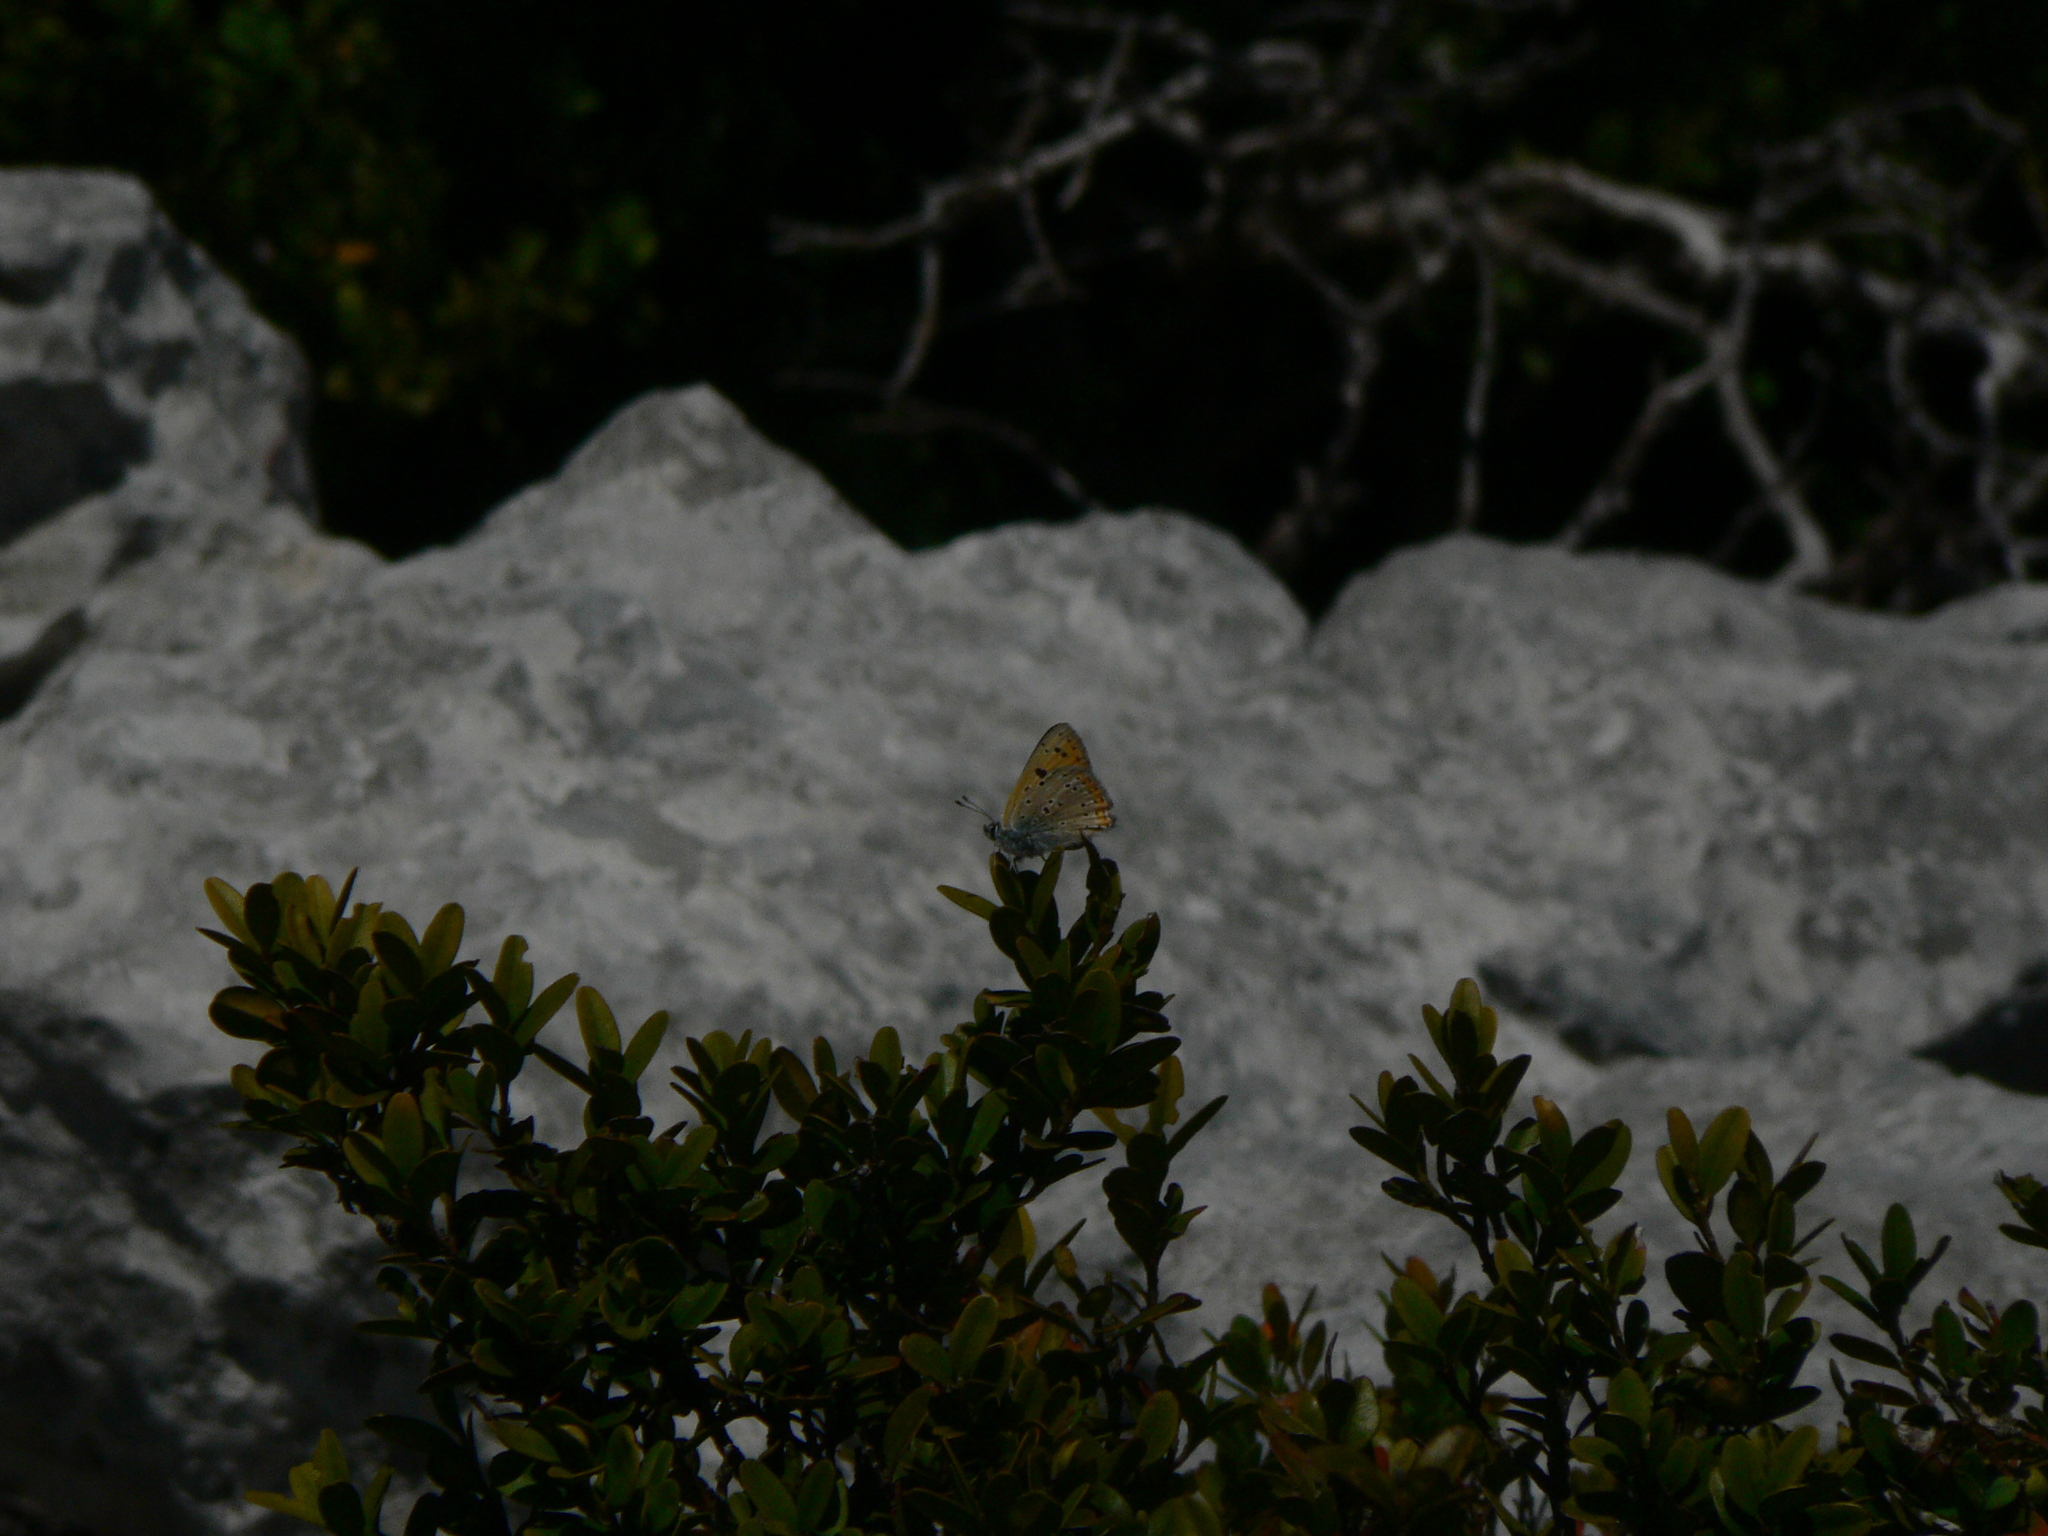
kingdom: Animalia
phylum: Arthropoda
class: Insecta
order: Lepidoptera
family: Lycaenidae
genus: Lycaena
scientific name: Lycaena alciphron
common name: Purple-shot copper
